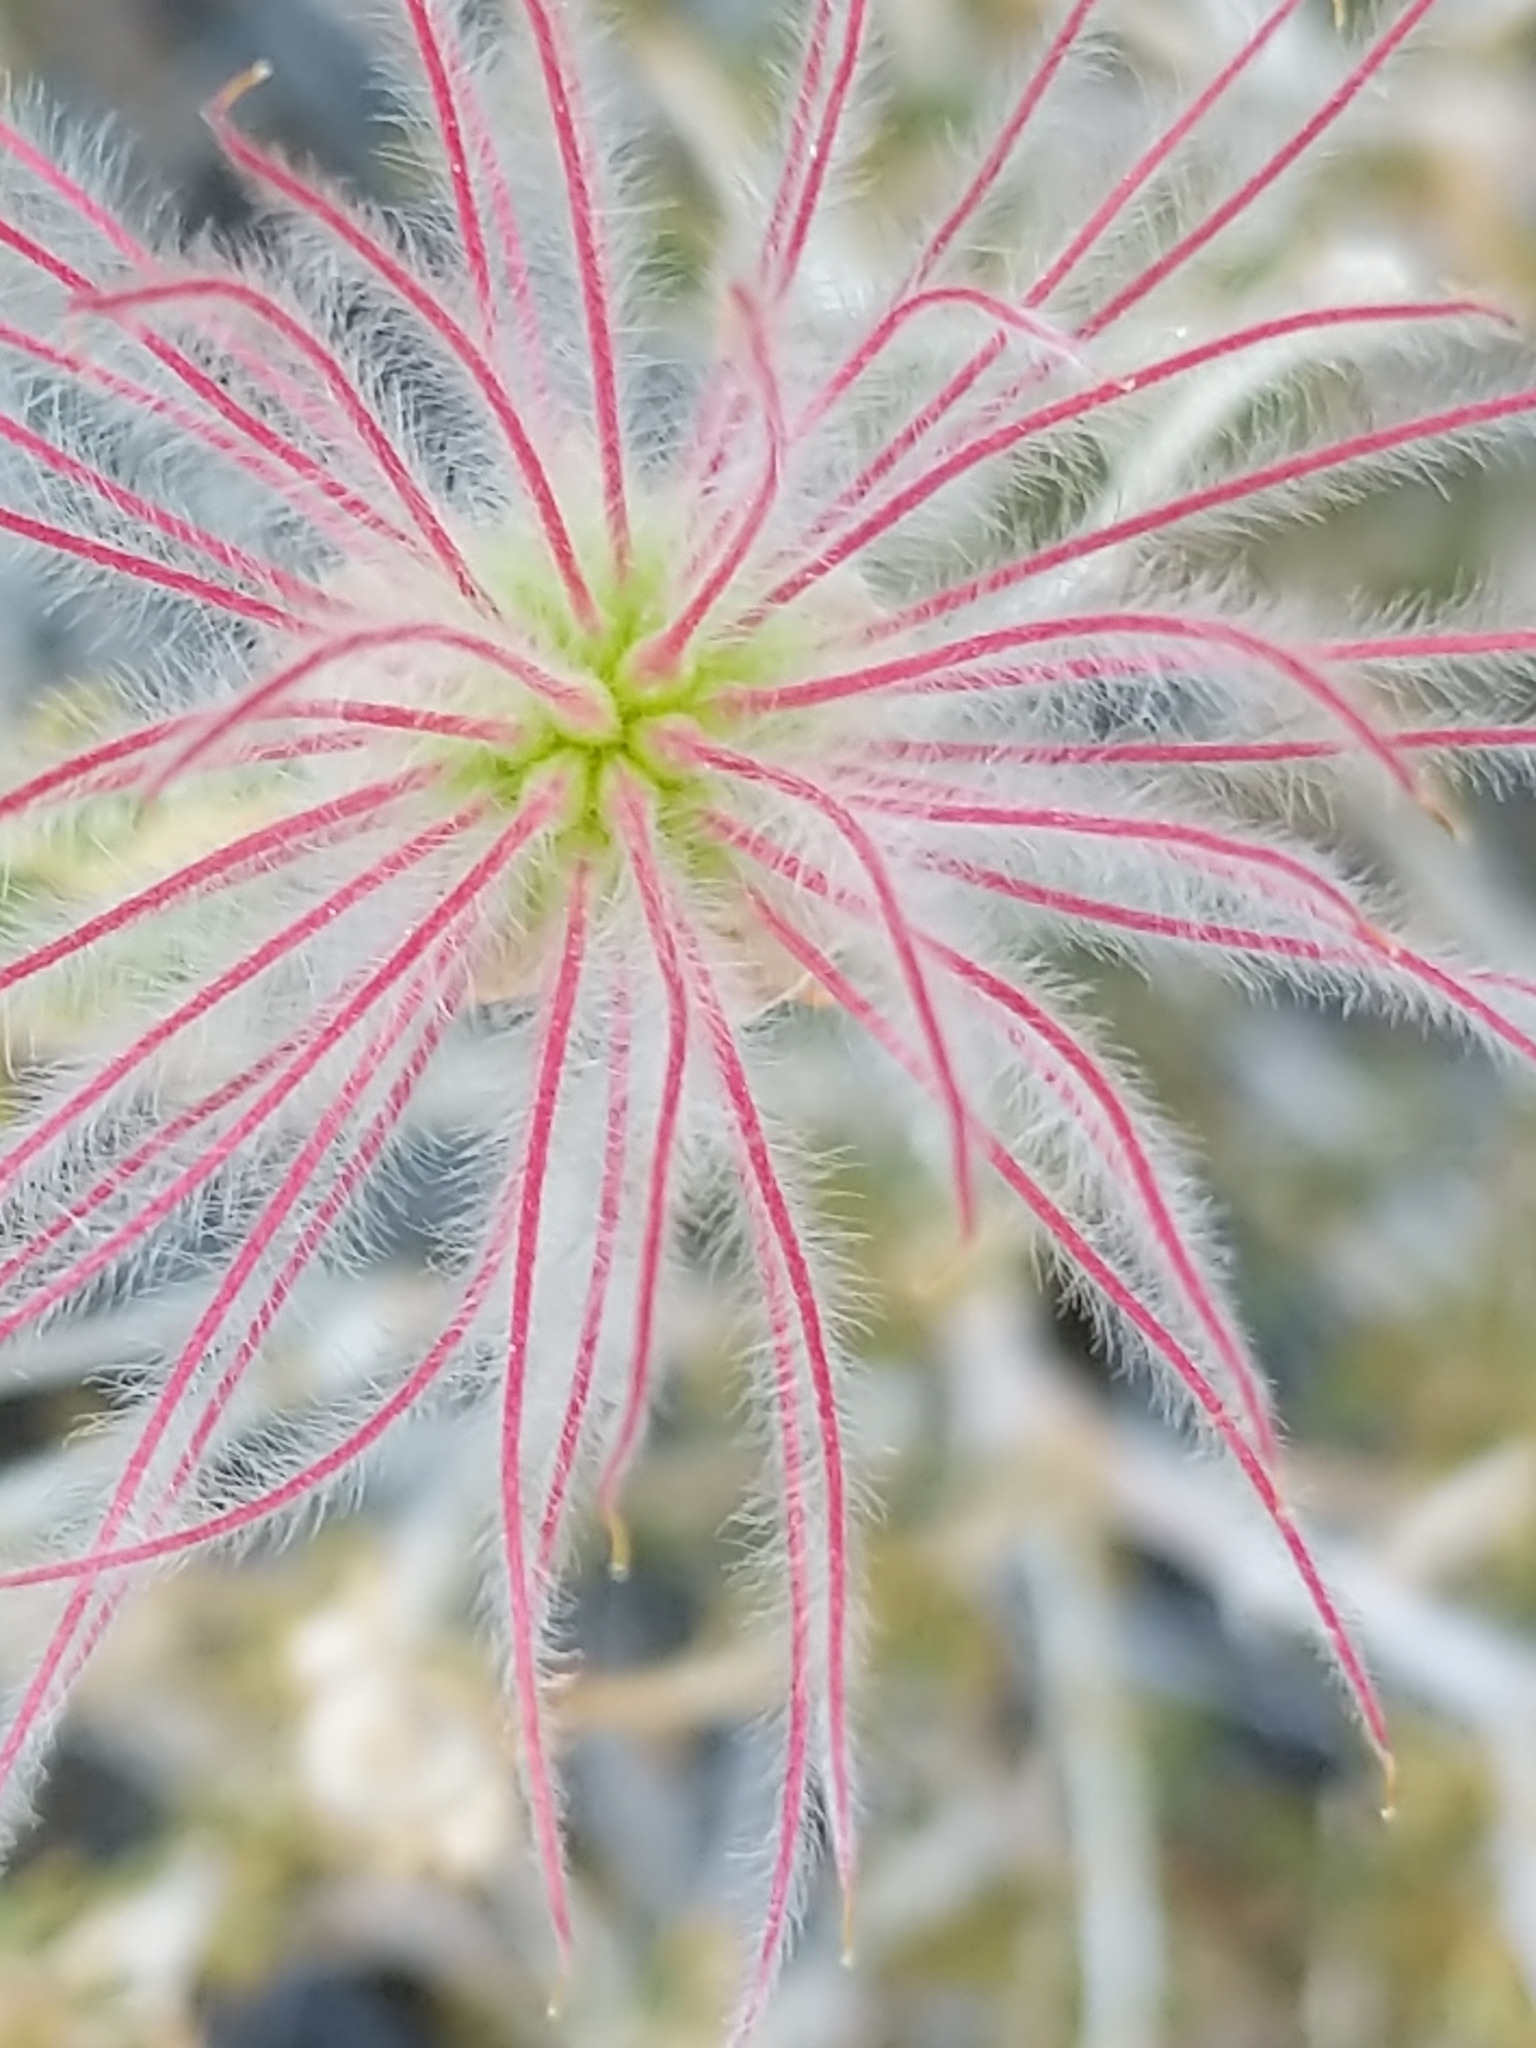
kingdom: Plantae
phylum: Tracheophyta
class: Magnoliopsida
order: Rosales
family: Rosaceae
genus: Fallugia
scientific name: Fallugia paradoxa
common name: Apache-plume
